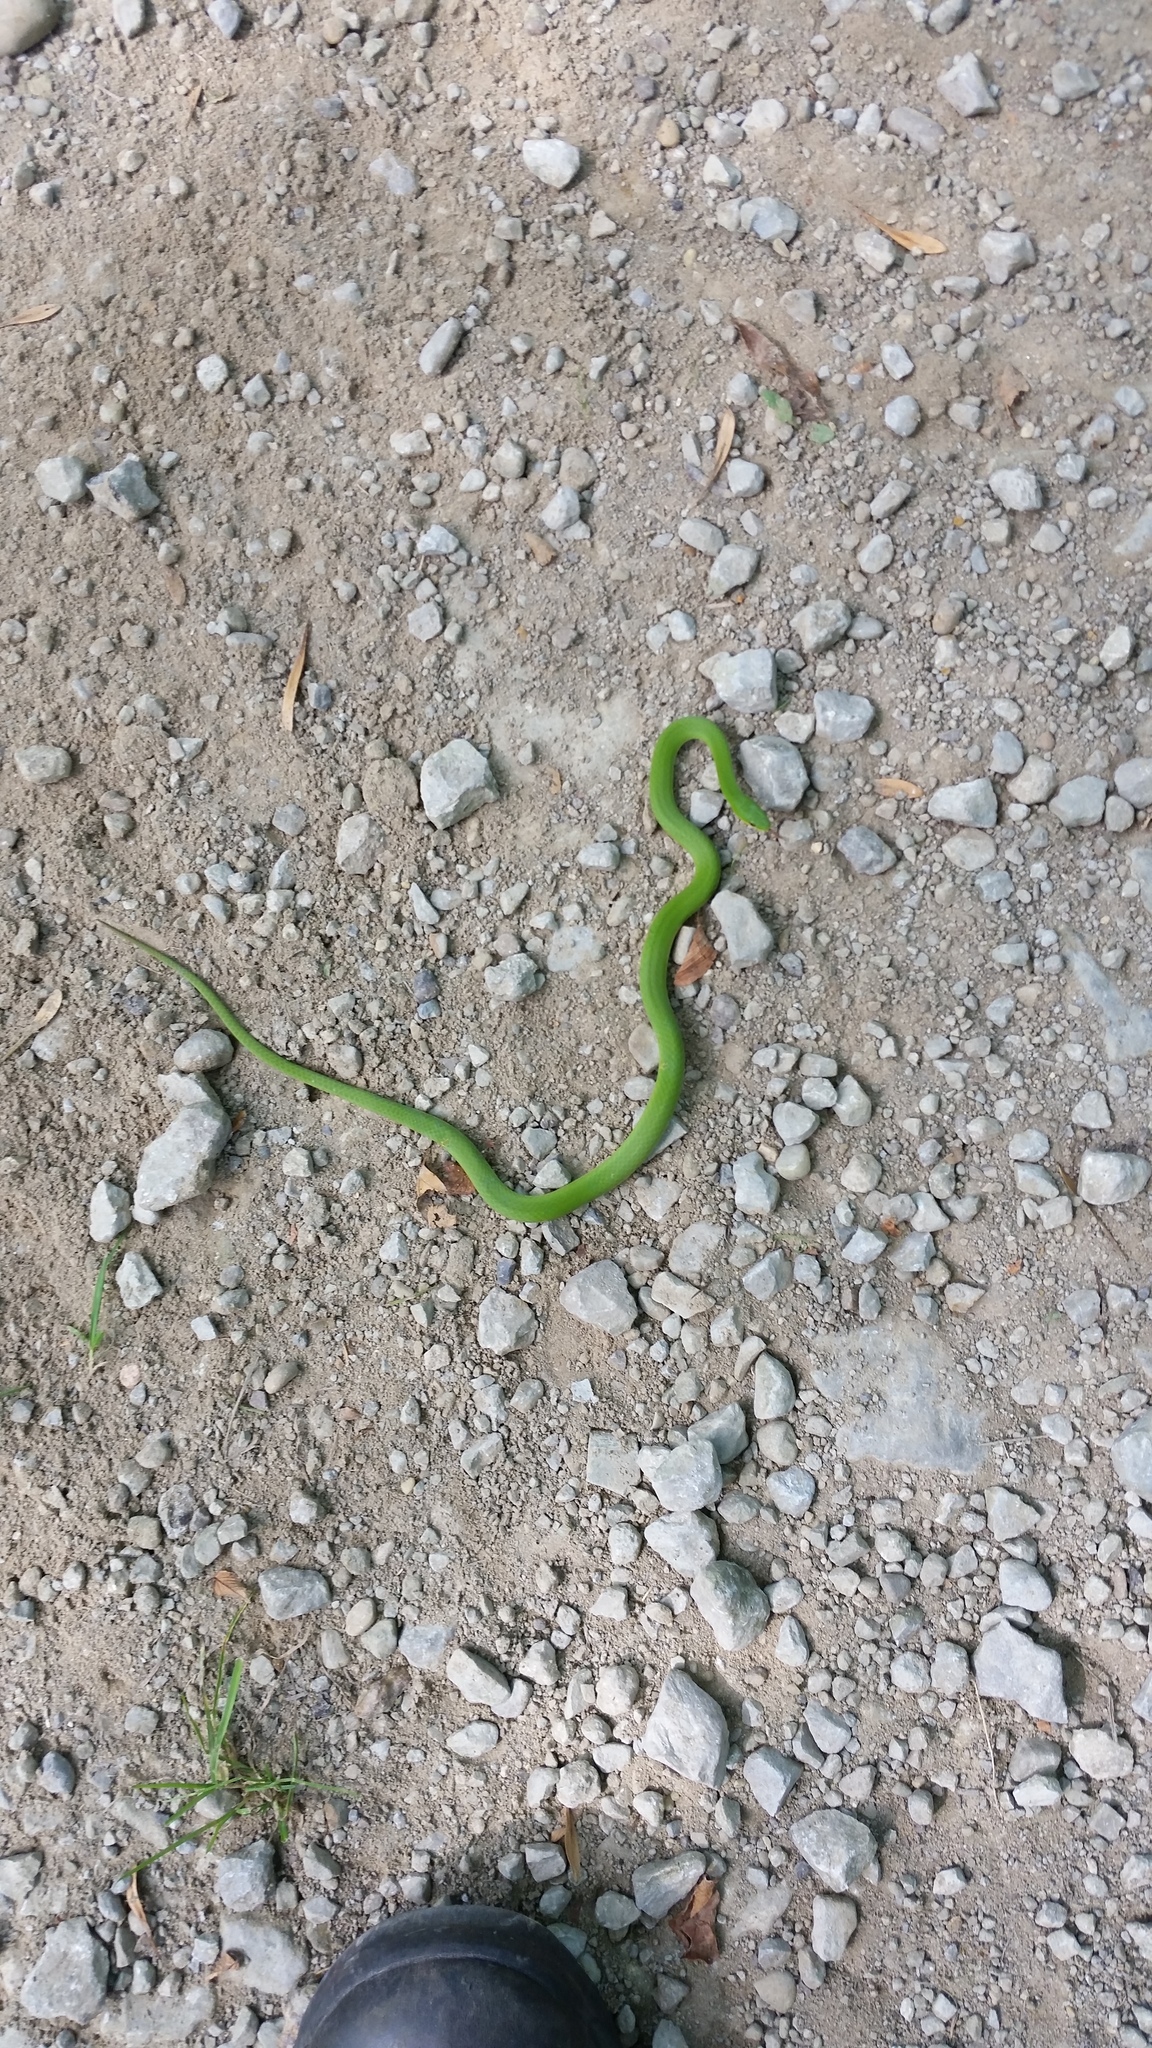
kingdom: Animalia
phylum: Chordata
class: Squamata
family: Colubridae
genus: Opheodrys
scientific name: Opheodrys vernalis
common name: Smooth green snake
